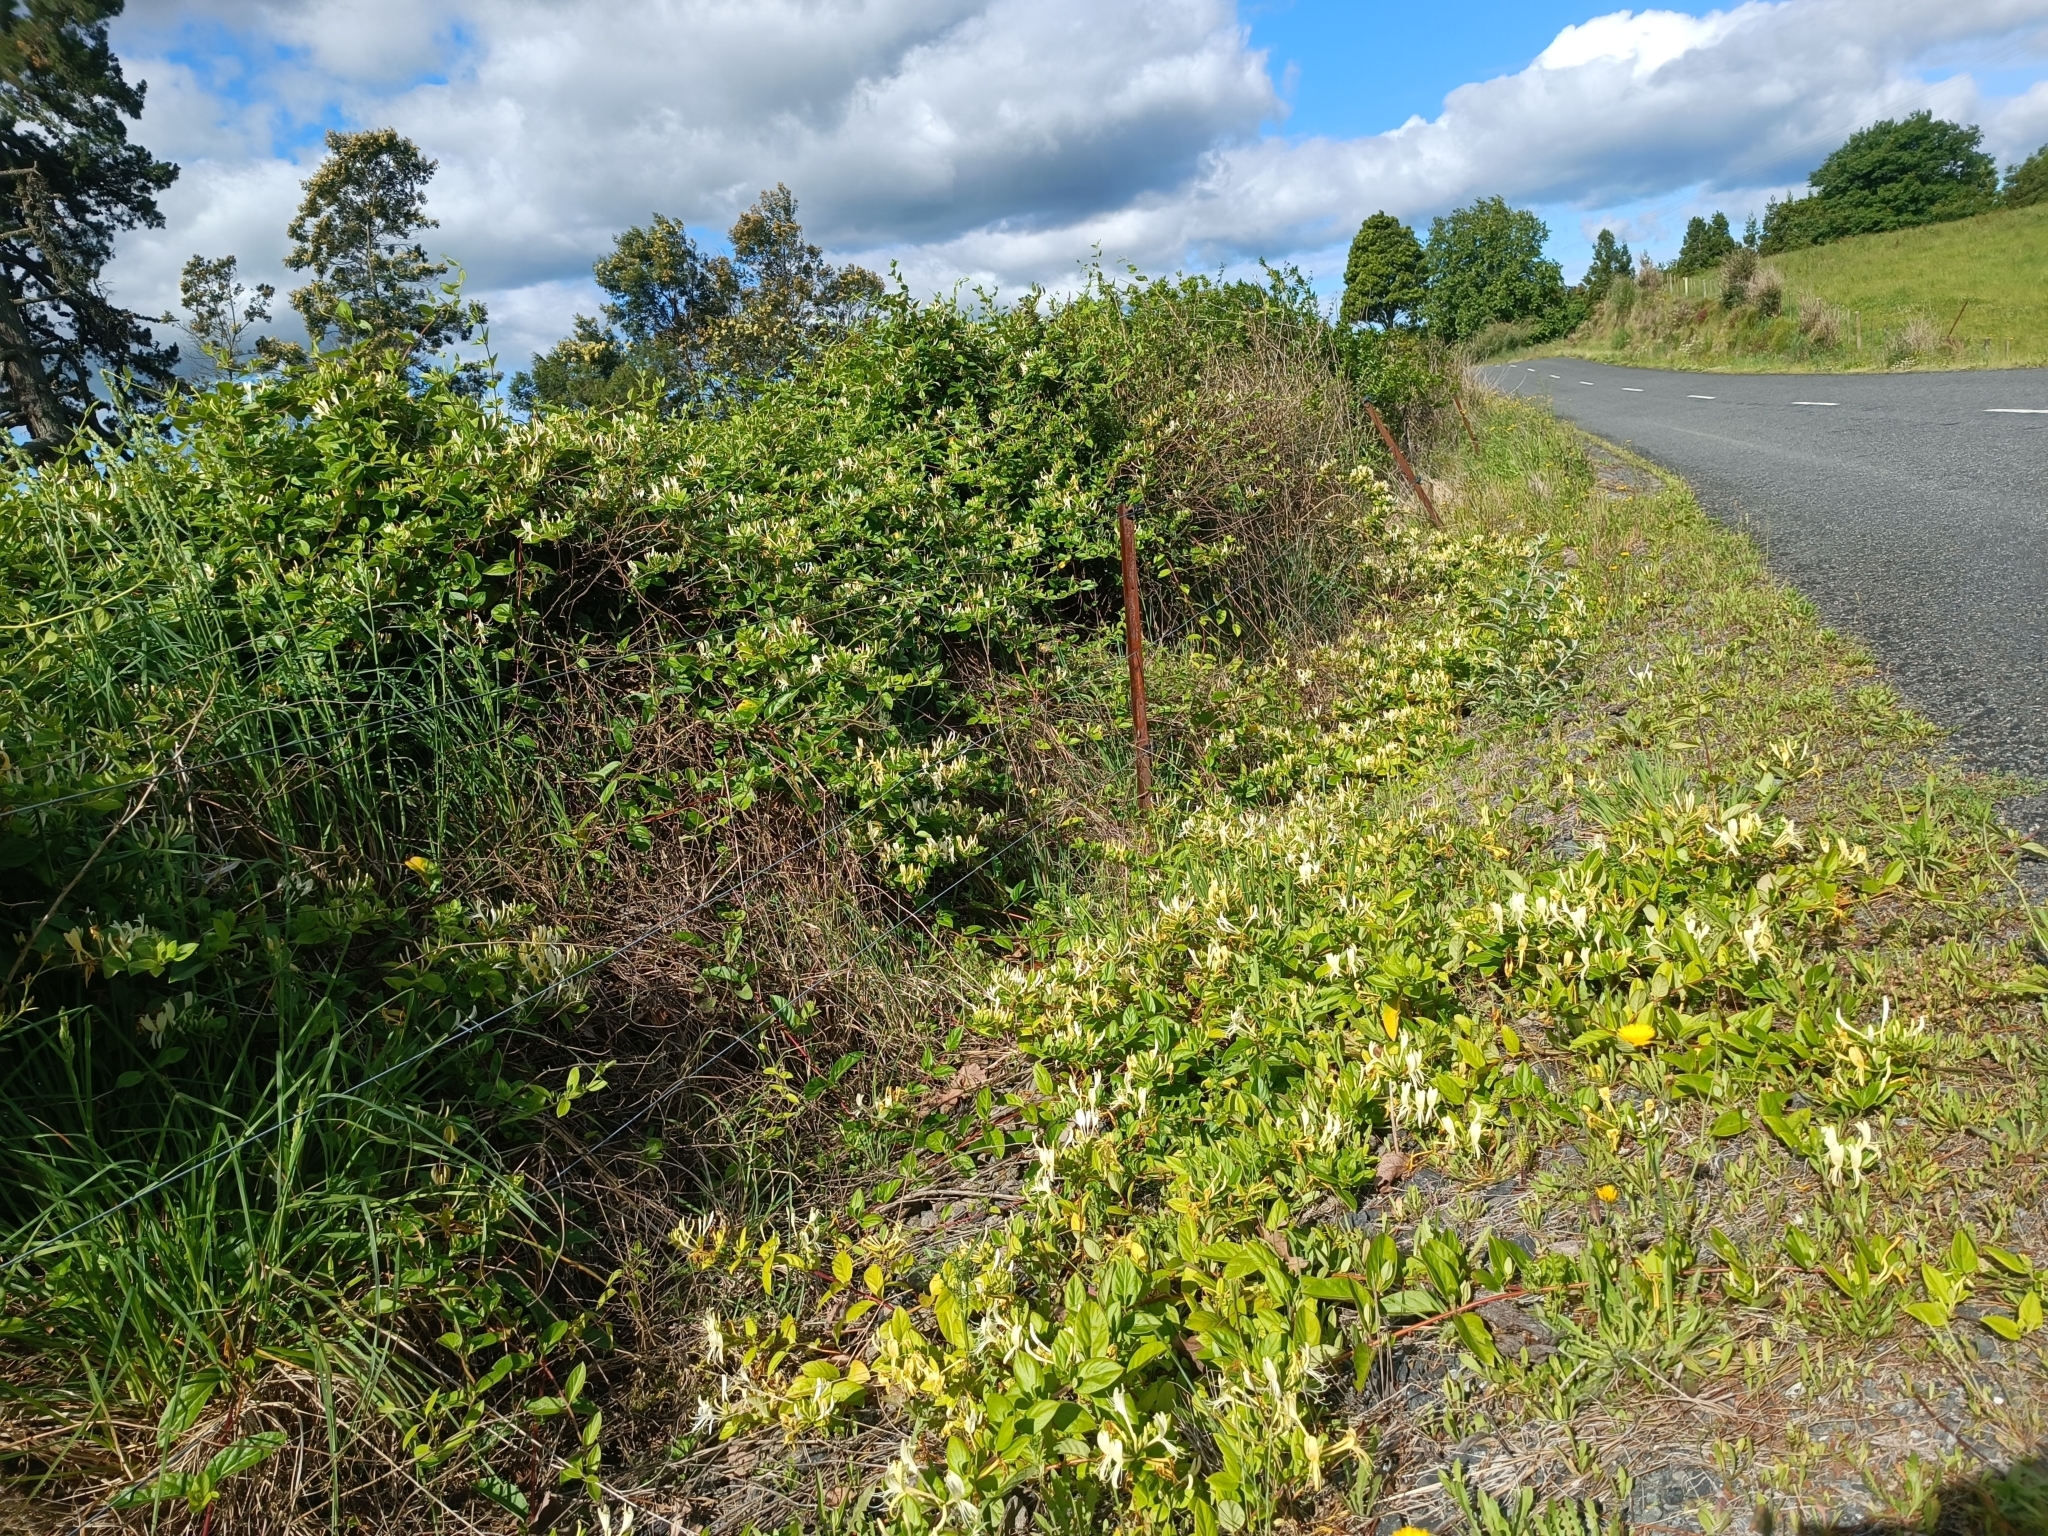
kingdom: Plantae
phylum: Tracheophyta
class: Magnoliopsida
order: Dipsacales
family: Caprifoliaceae
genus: Lonicera
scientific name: Lonicera japonica
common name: Japanese honeysuckle
